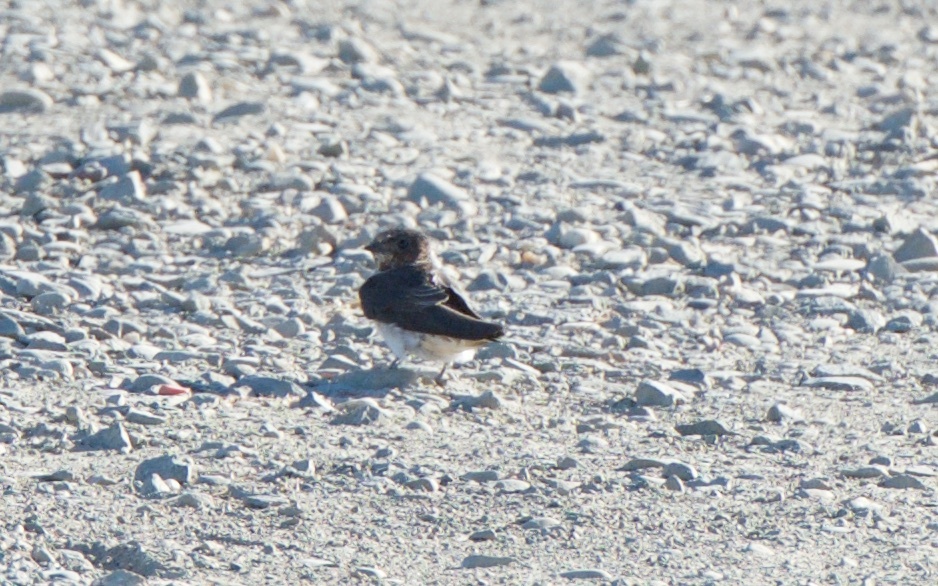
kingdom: Animalia
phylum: Chordata
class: Aves
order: Passeriformes
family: Hirundinidae
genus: Petrochelidon
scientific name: Petrochelidon pyrrhonota
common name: American cliff swallow
